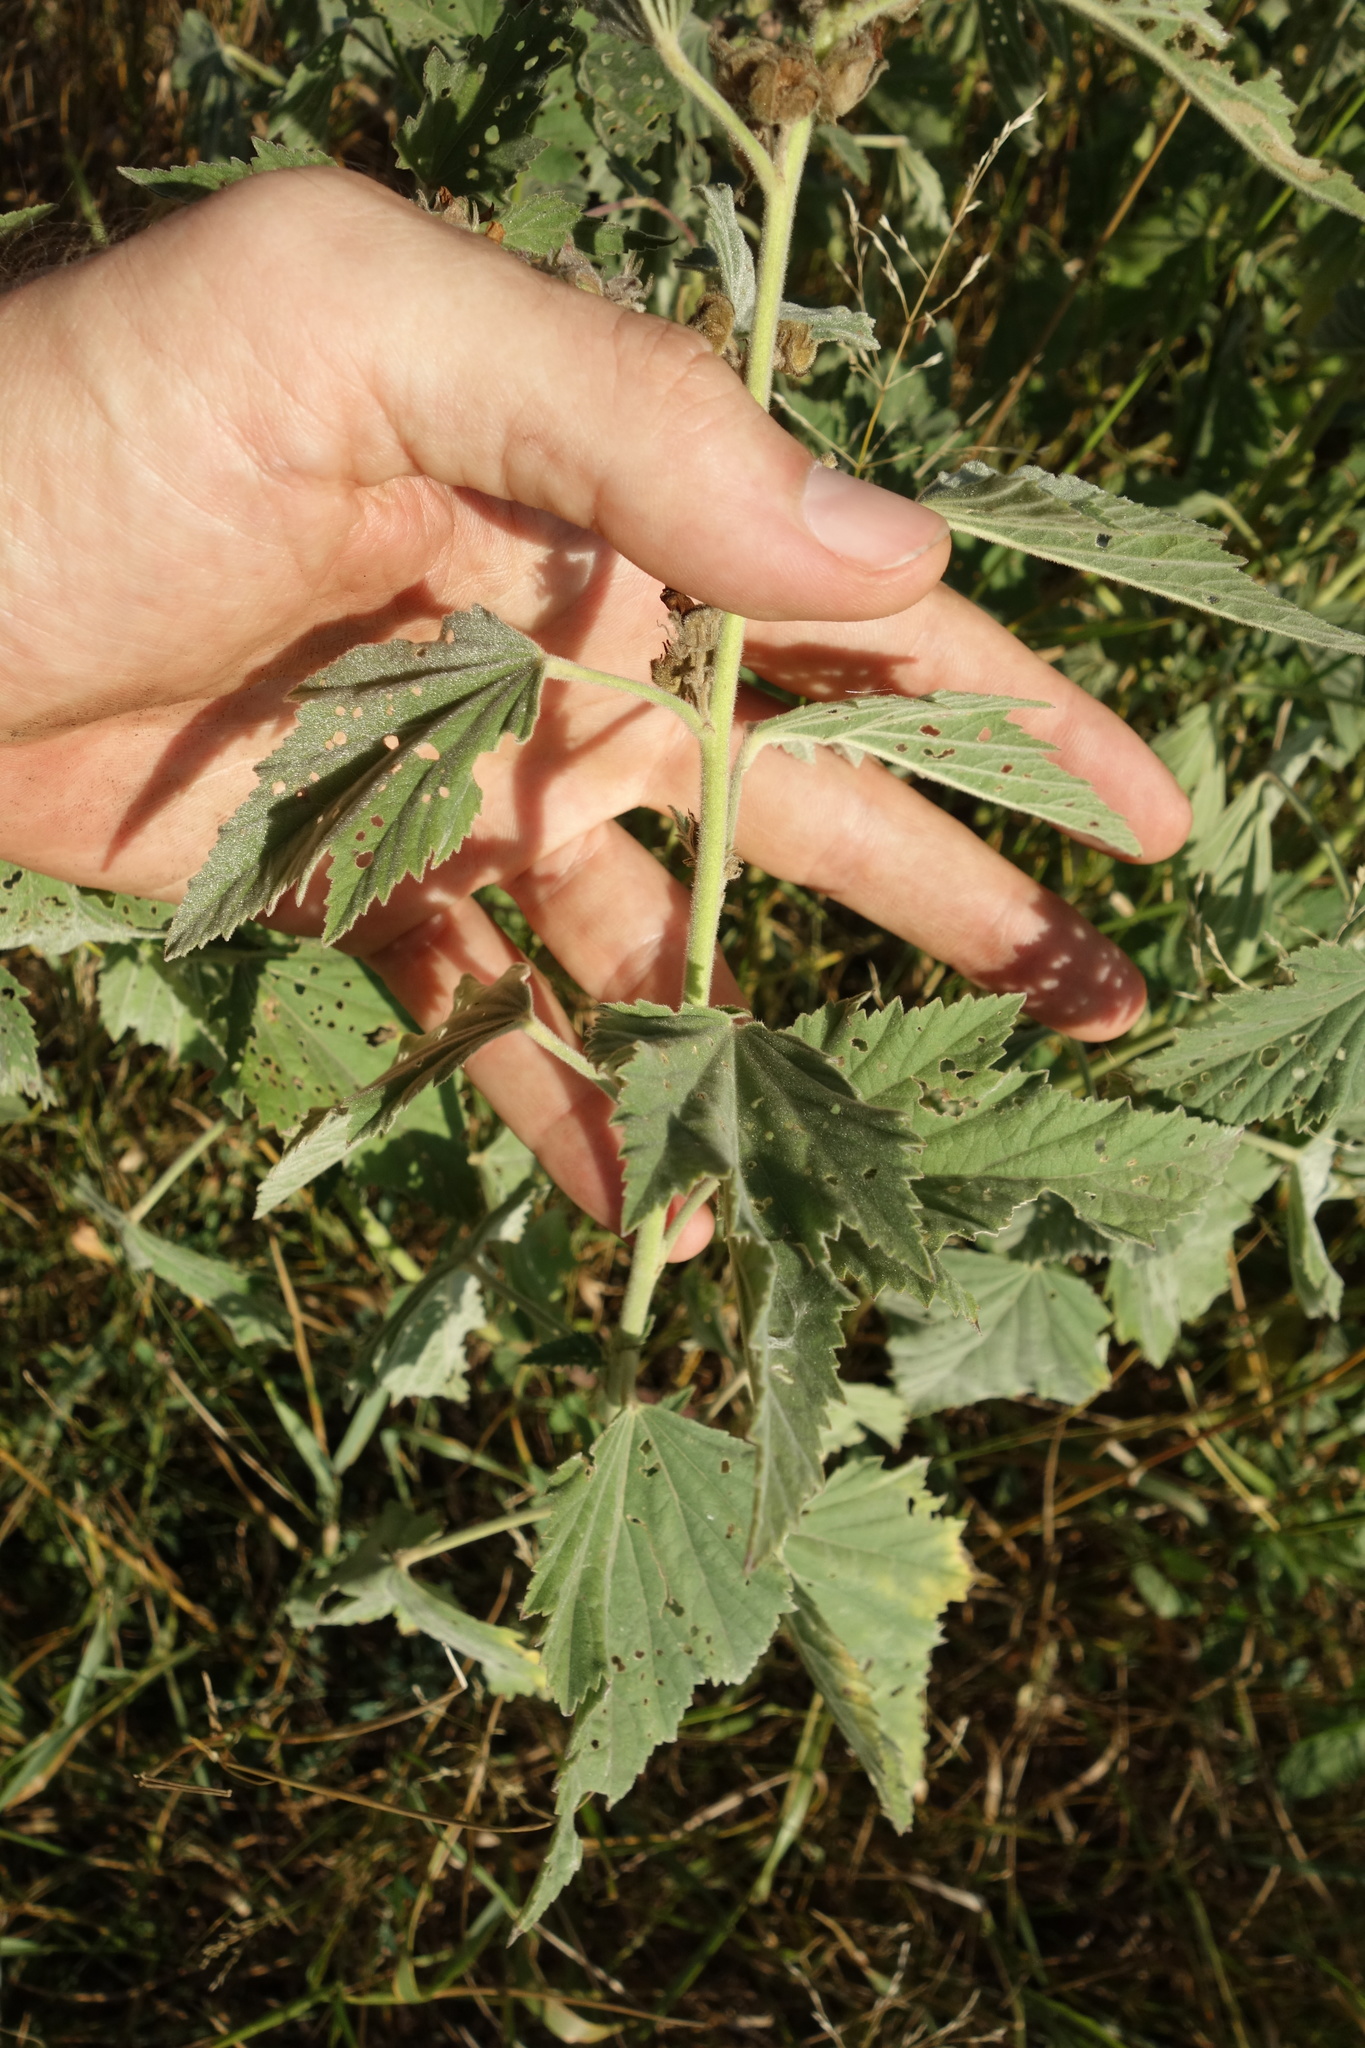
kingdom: Plantae
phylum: Tracheophyta
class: Magnoliopsida
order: Malvales
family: Malvaceae
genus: Althaea
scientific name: Althaea officinalis
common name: Marsh-mallow
